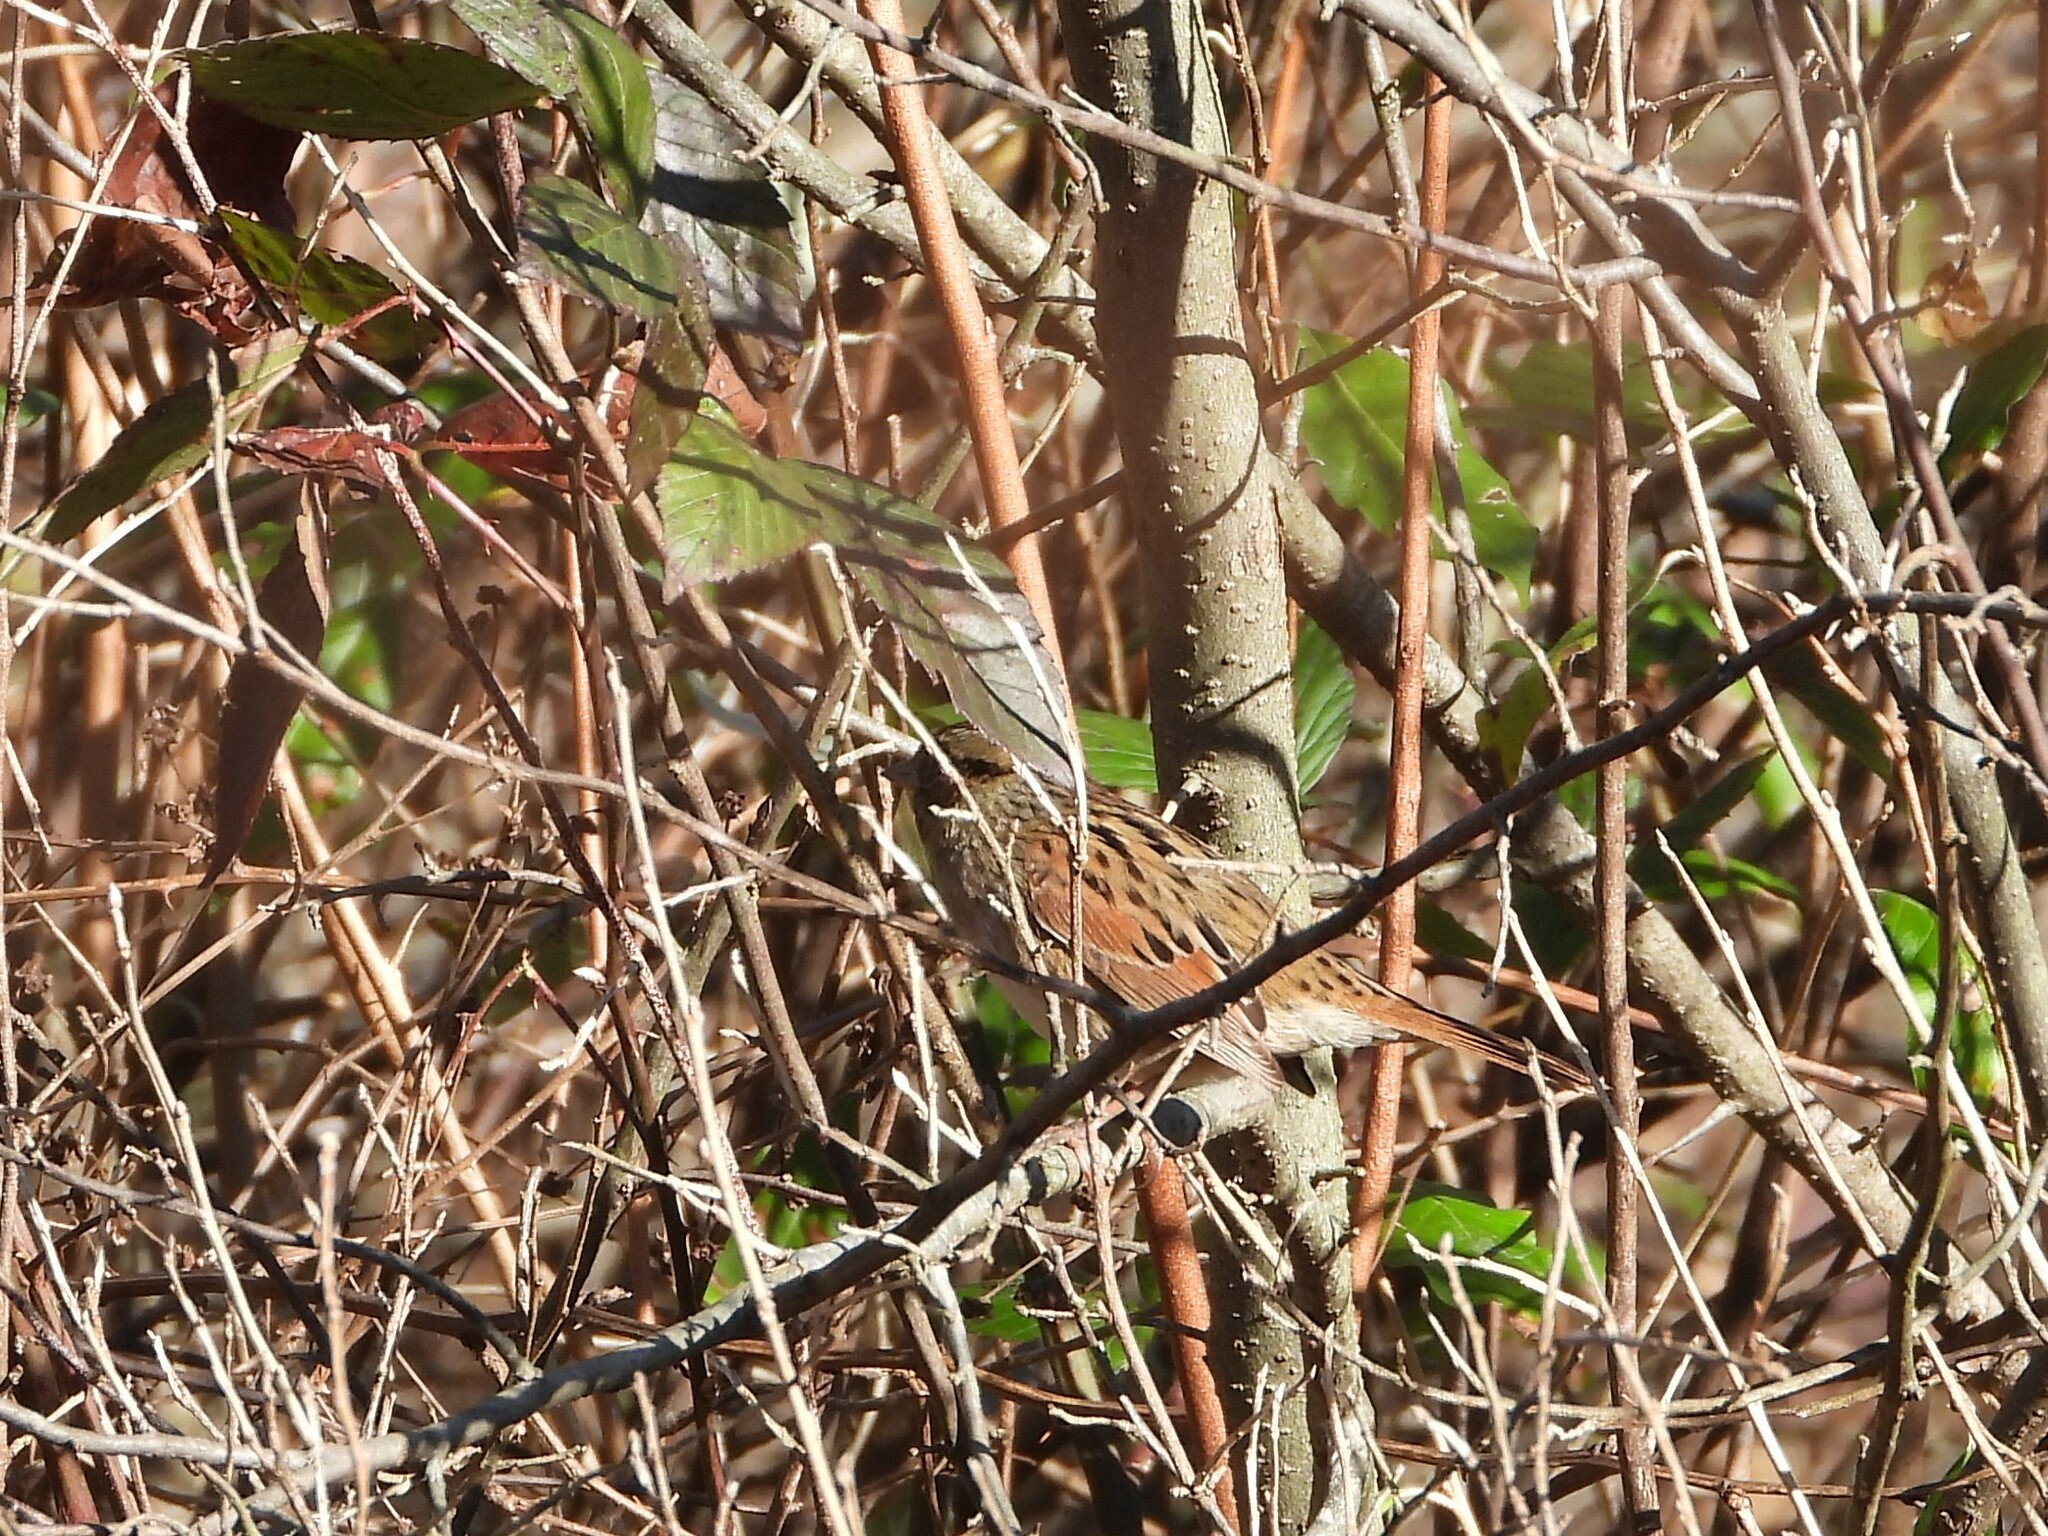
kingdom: Animalia
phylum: Chordata
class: Aves
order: Passeriformes
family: Passerellidae
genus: Melospiza
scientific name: Melospiza georgiana
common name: Swamp sparrow
